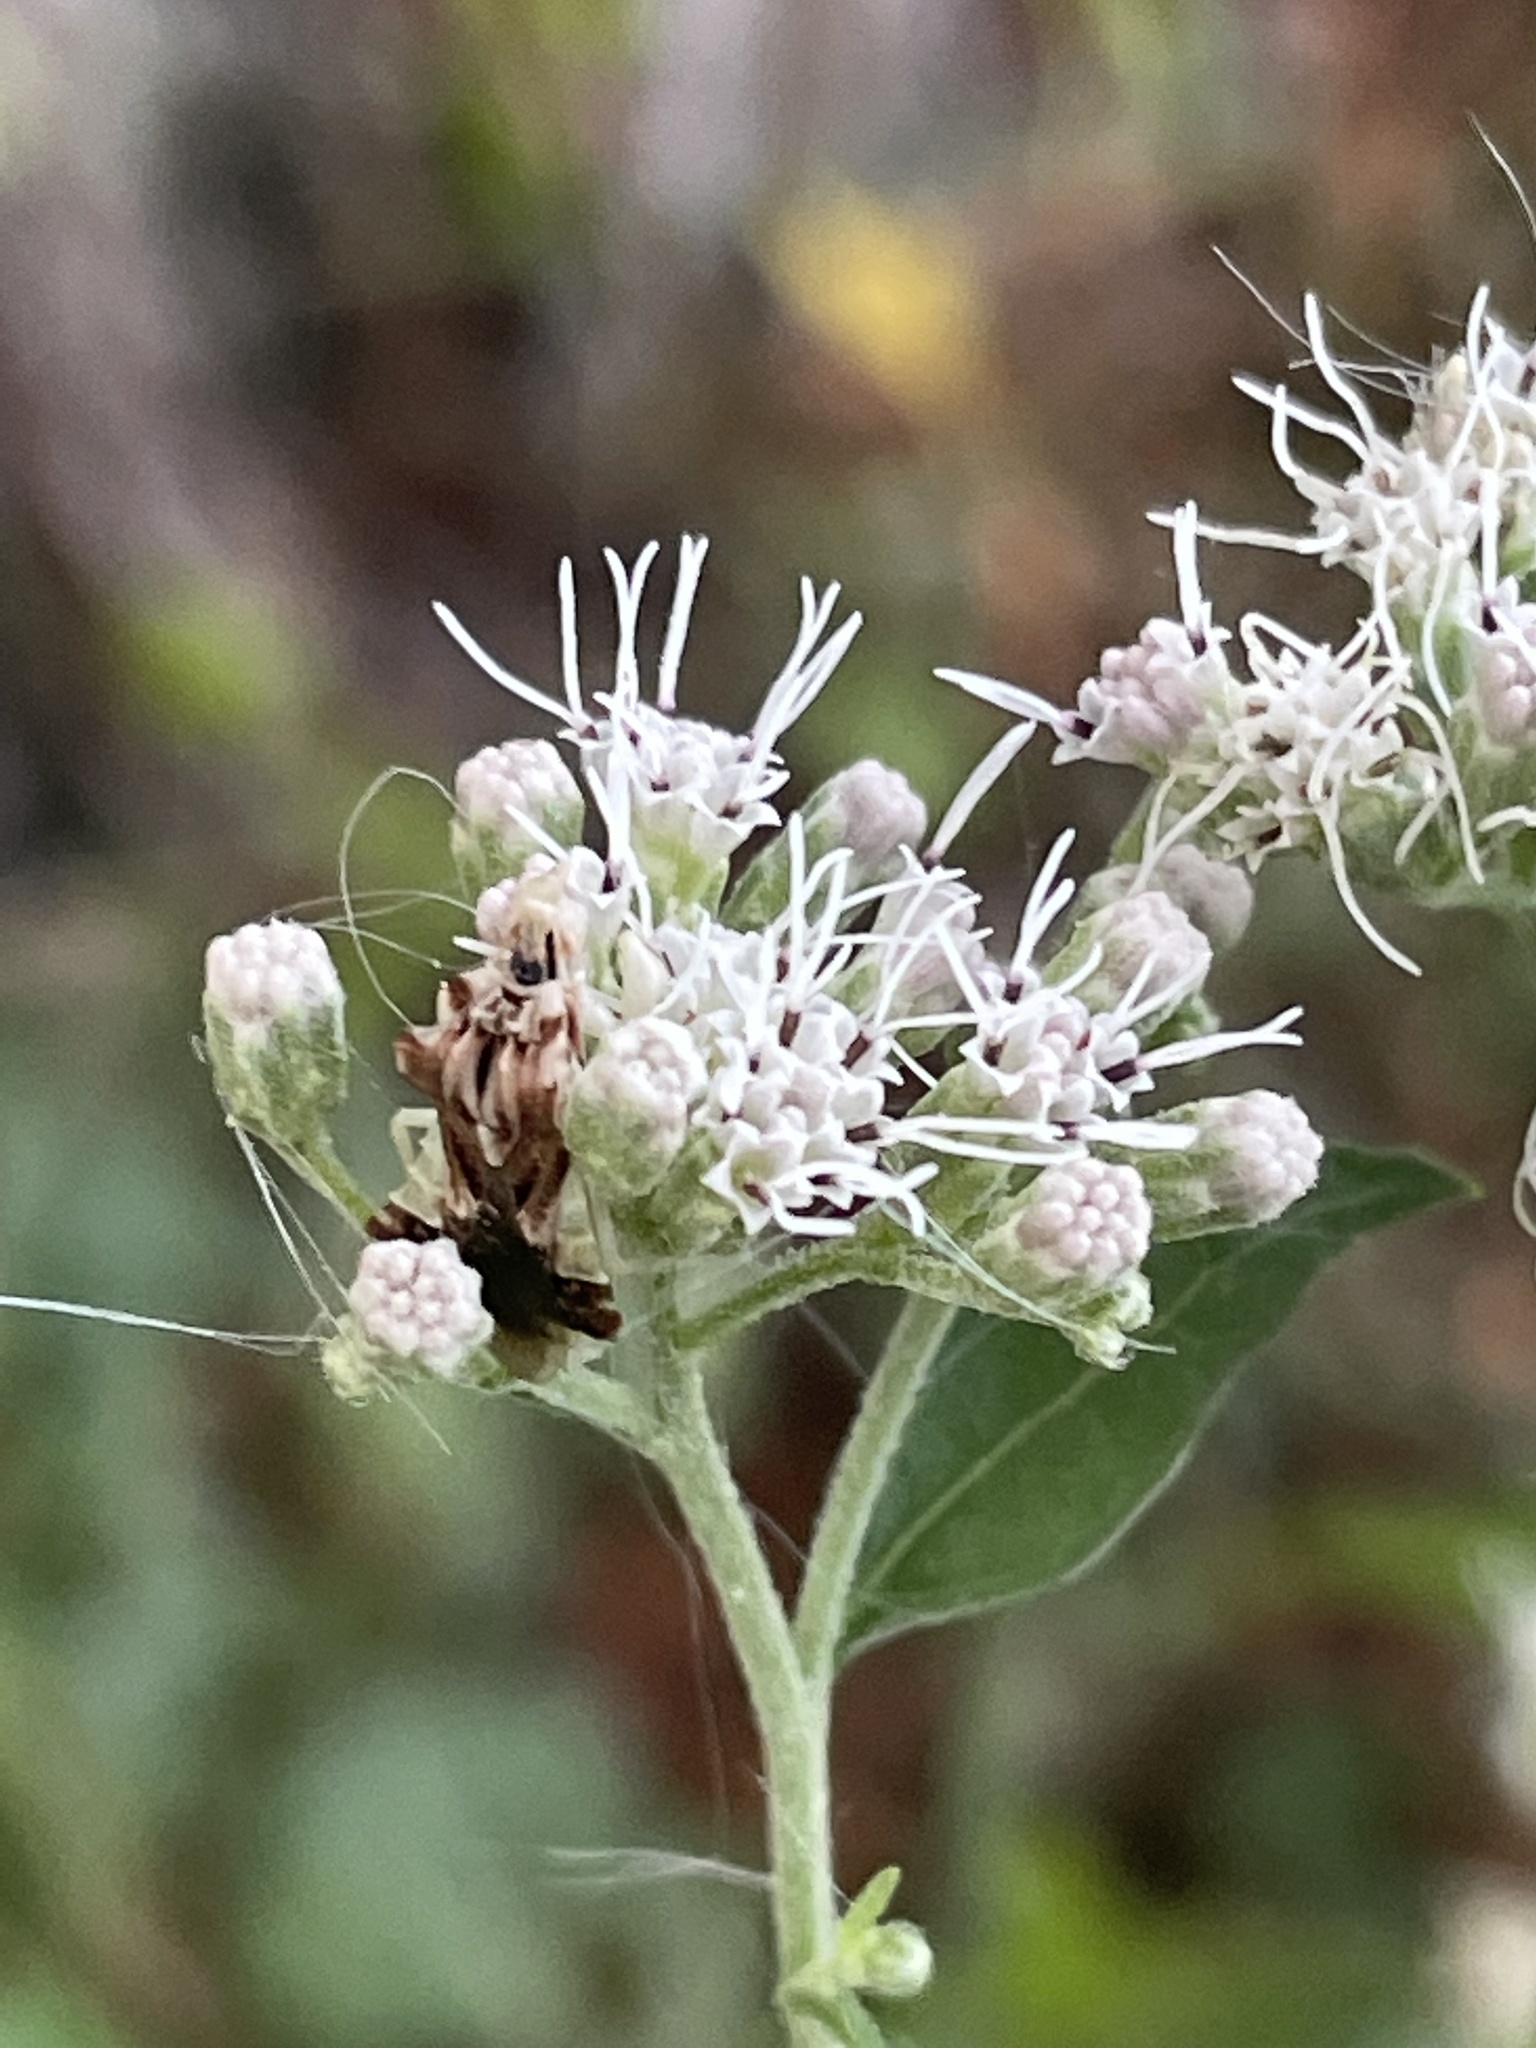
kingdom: Animalia
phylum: Arthropoda
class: Insecta
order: Hemiptera
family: Reduviidae
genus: Phymata
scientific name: Phymata fasciata
